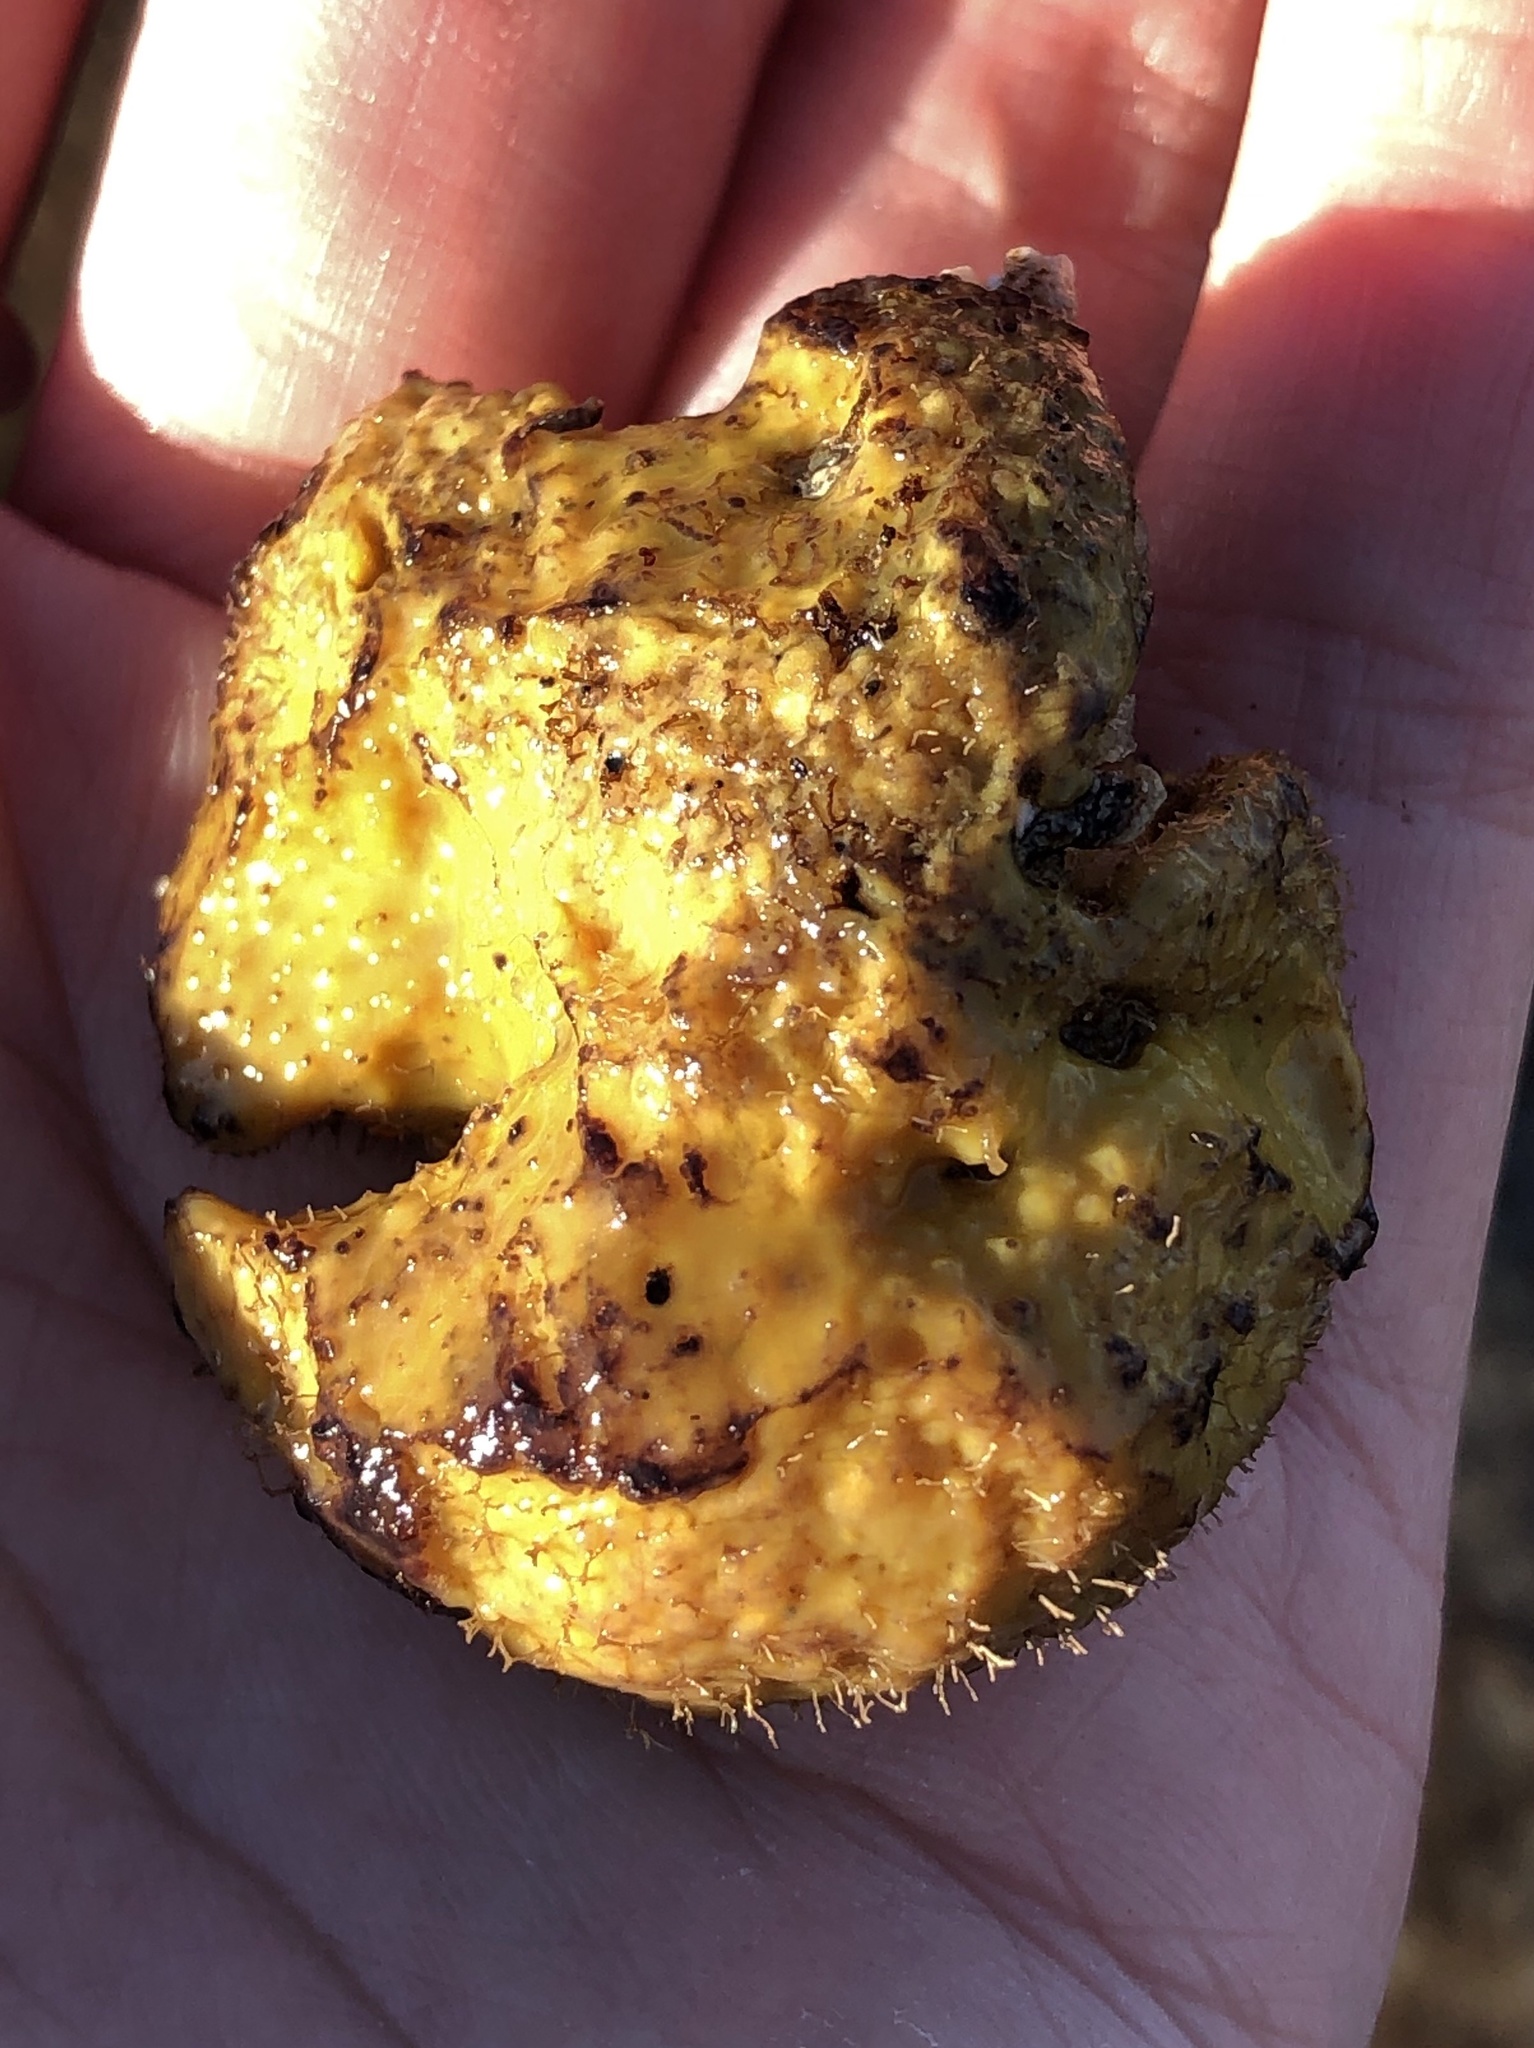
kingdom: Animalia
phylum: Porifera
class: Demospongiae
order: Verongiida
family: Aplysinidae
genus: Aiolochroia
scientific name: Aiolochroia thiona
